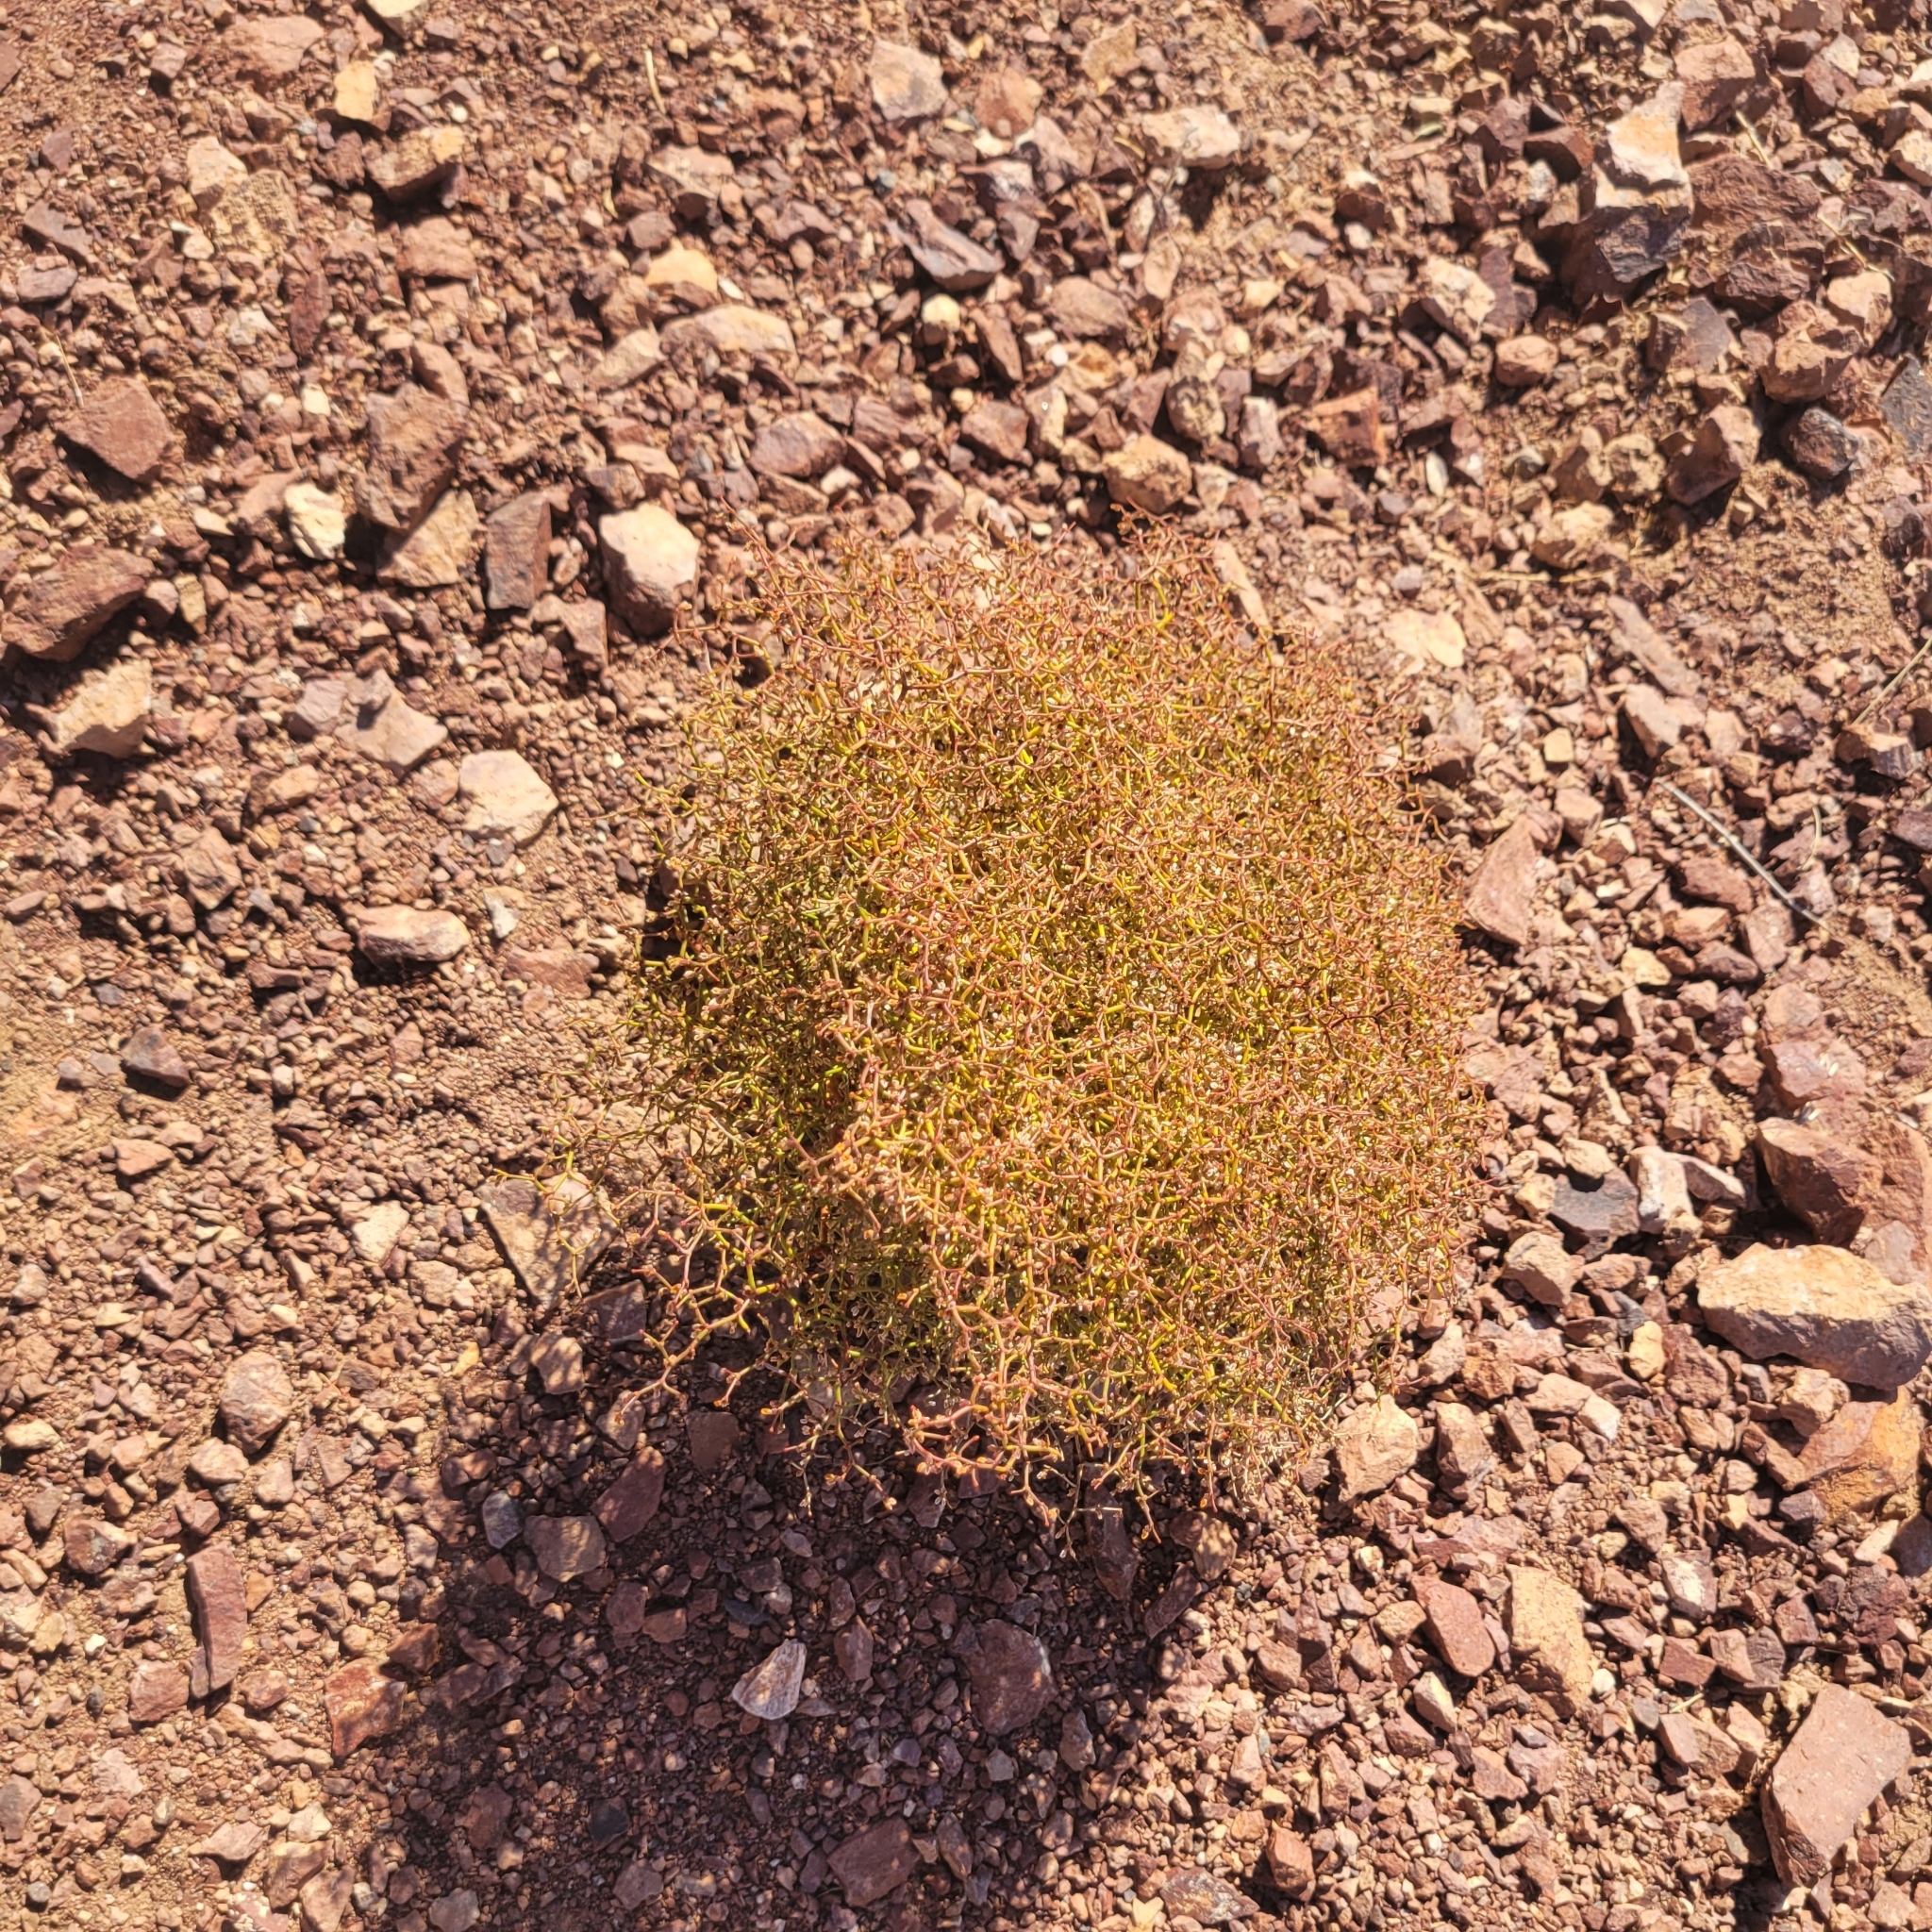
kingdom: Plantae
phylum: Tracheophyta
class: Magnoliopsida
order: Caryophyllales
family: Polygonaceae
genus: Eriogonum
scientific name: Eriogonum rixfordii
